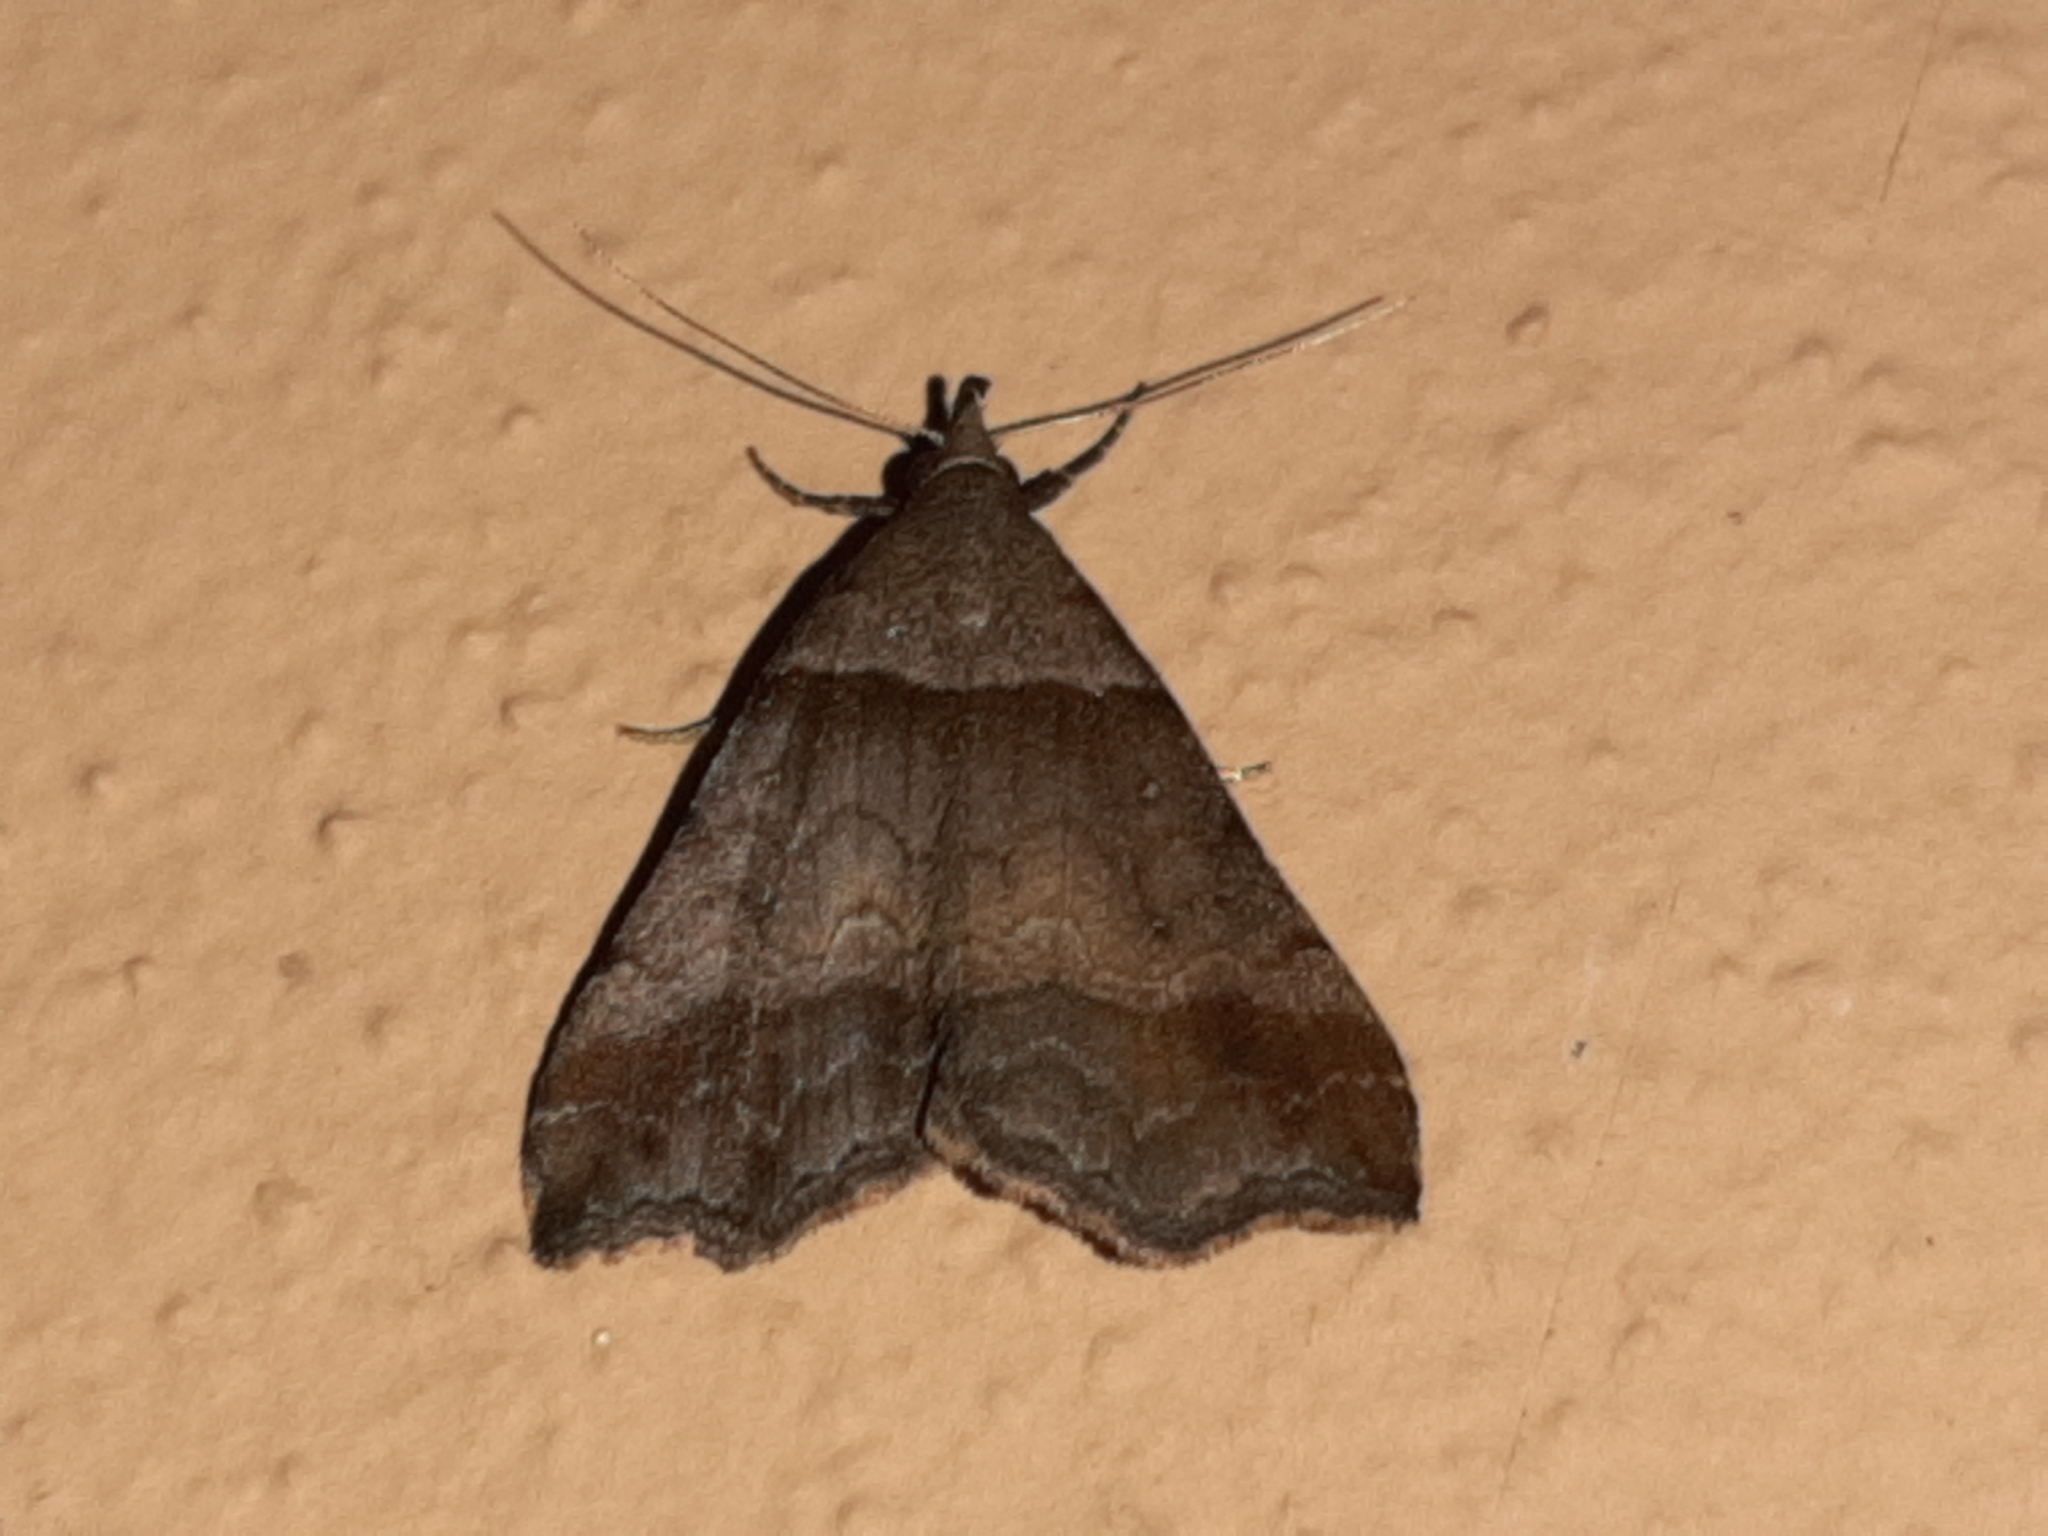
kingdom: Animalia
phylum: Arthropoda
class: Insecta
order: Lepidoptera
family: Erebidae
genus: Phaeolita
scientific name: Phaeolita pyramusalis
